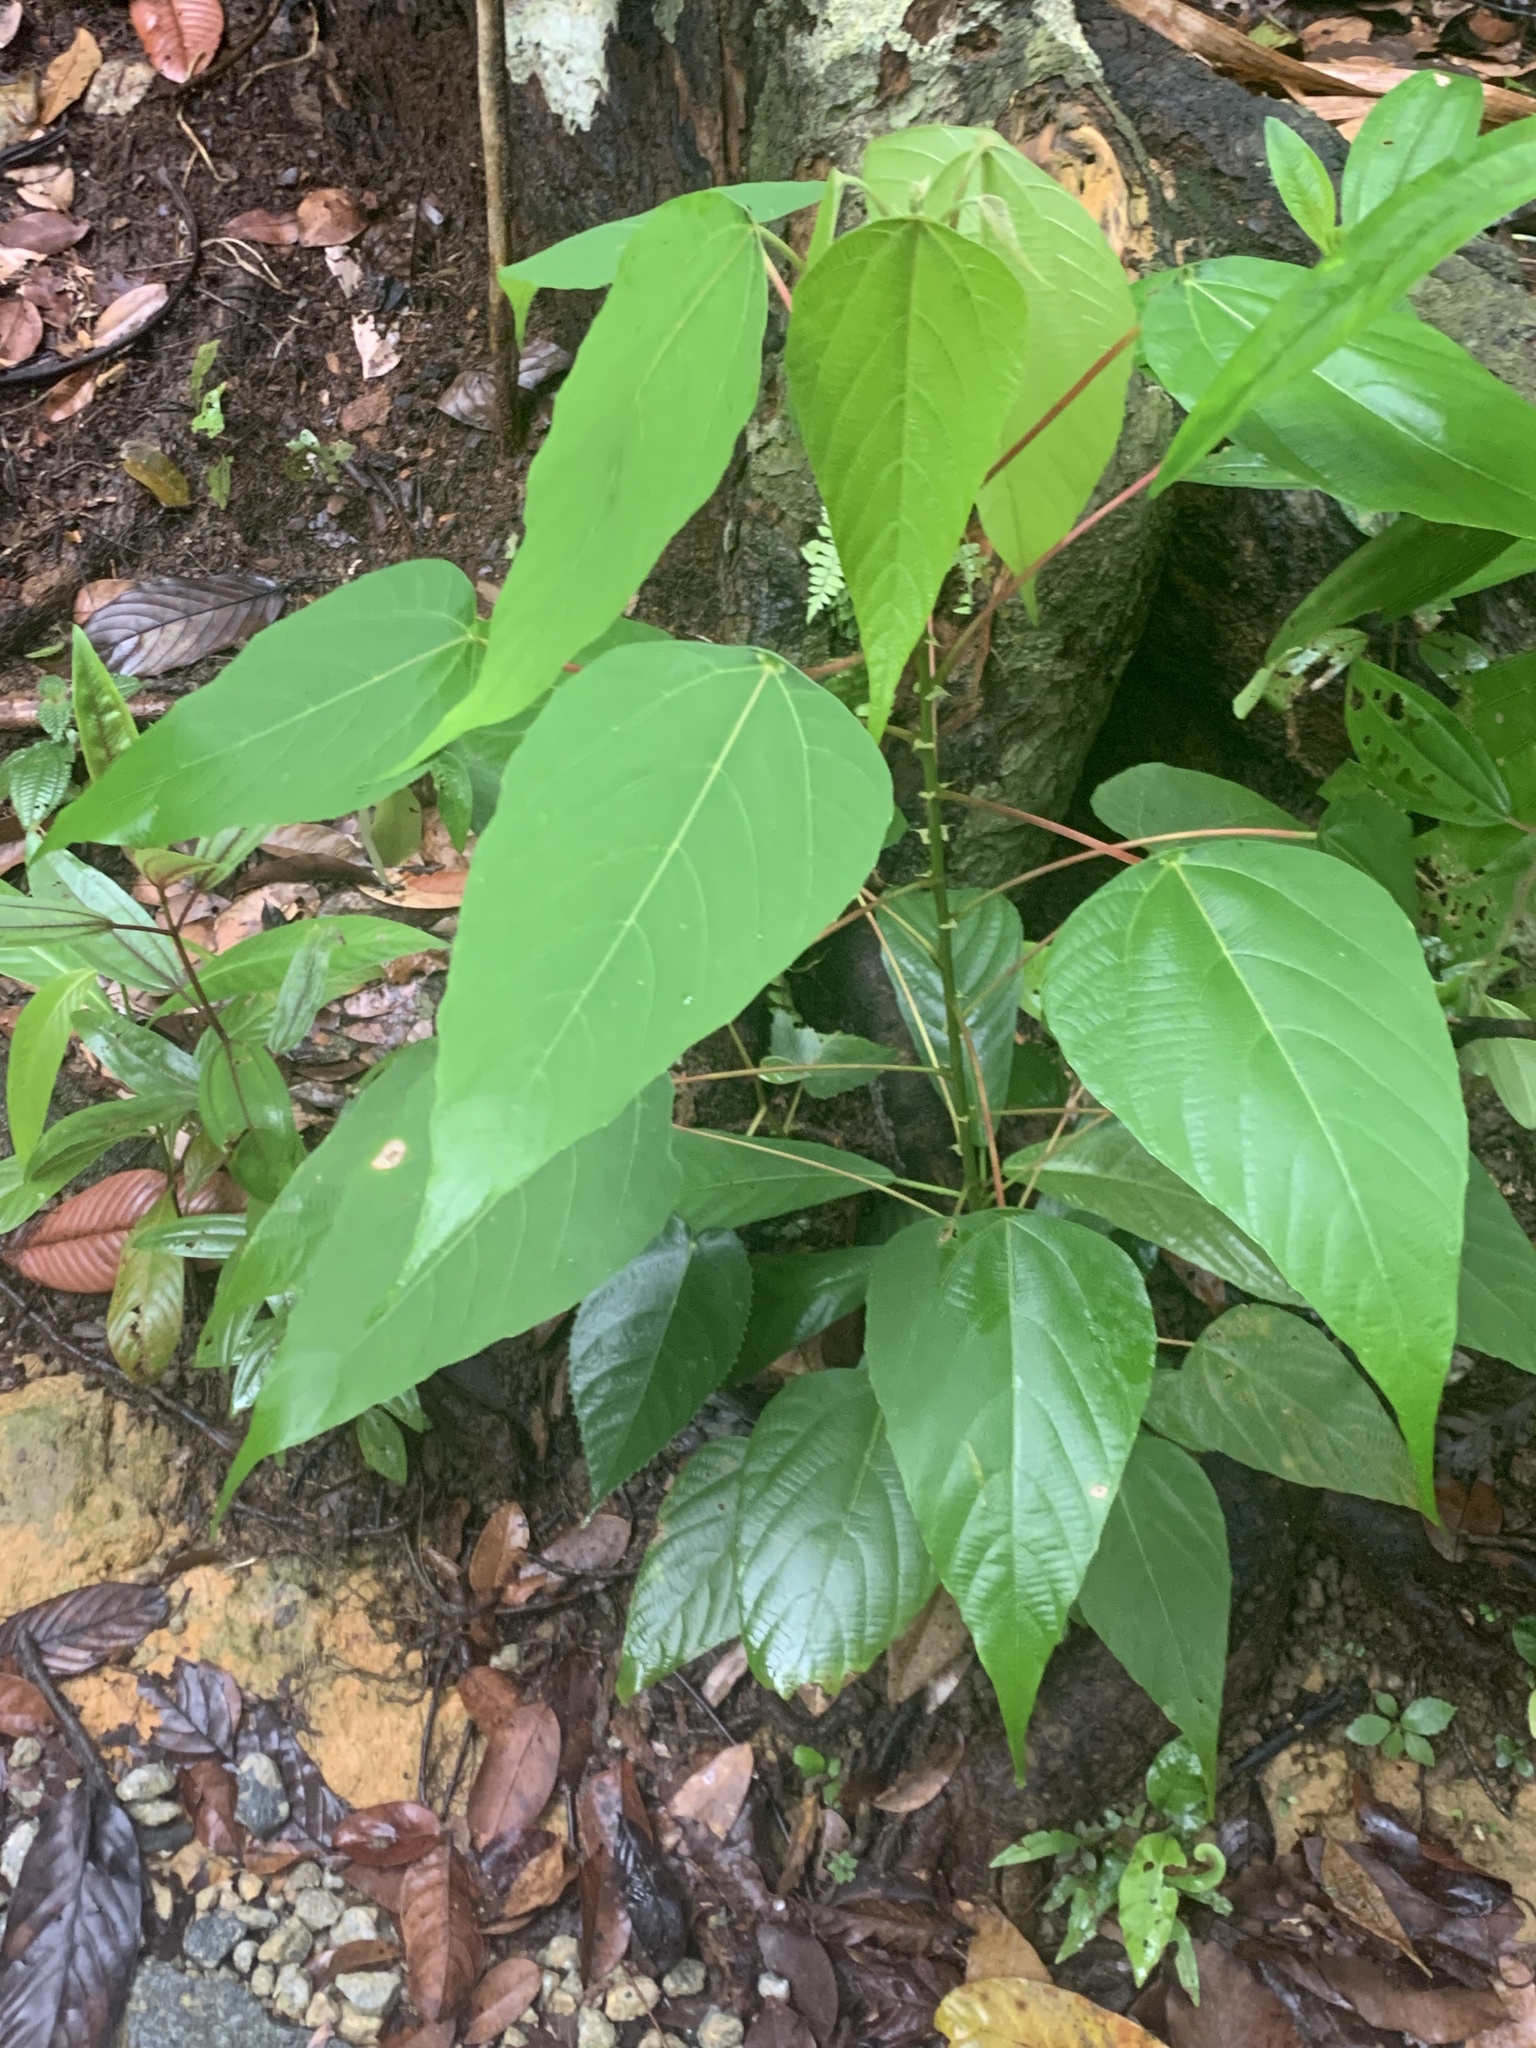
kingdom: Plantae
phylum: Tracheophyta
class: Magnoliopsida
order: Malpighiales
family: Euphorbiaceae
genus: Macaranga
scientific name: Macaranga heynei
